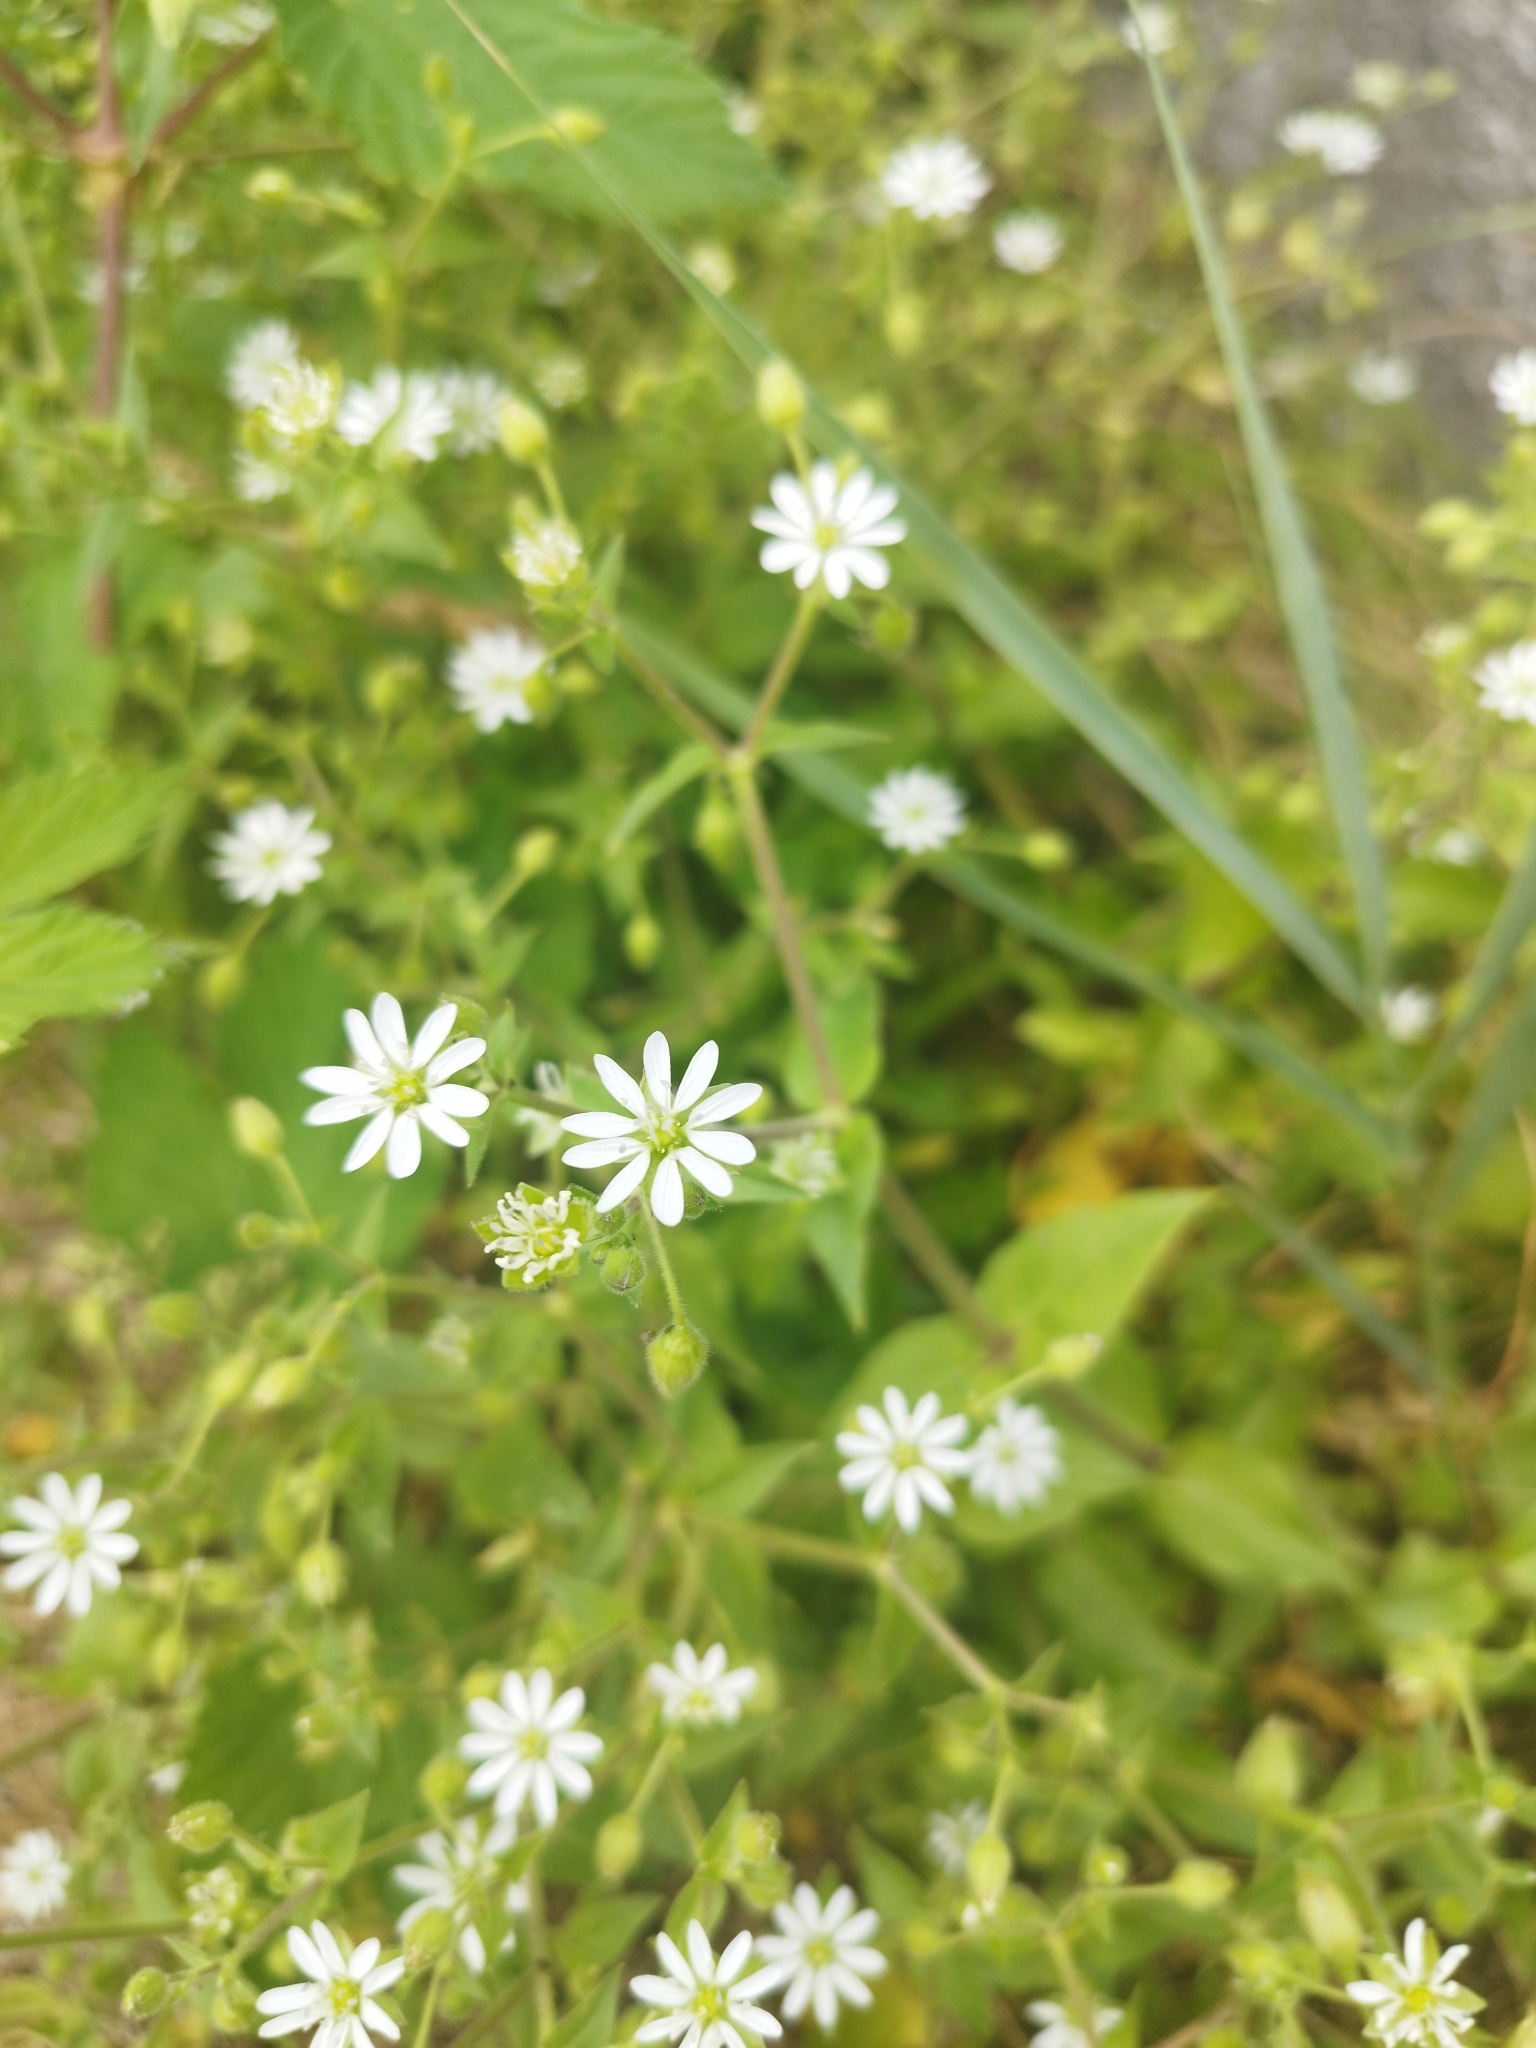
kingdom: Plantae
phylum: Tracheophyta
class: Magnoliopsida
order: Caryophyllales
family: Caryophyllaceae
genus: Stellaria
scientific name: Stellaria aquatica
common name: Water chickweed
